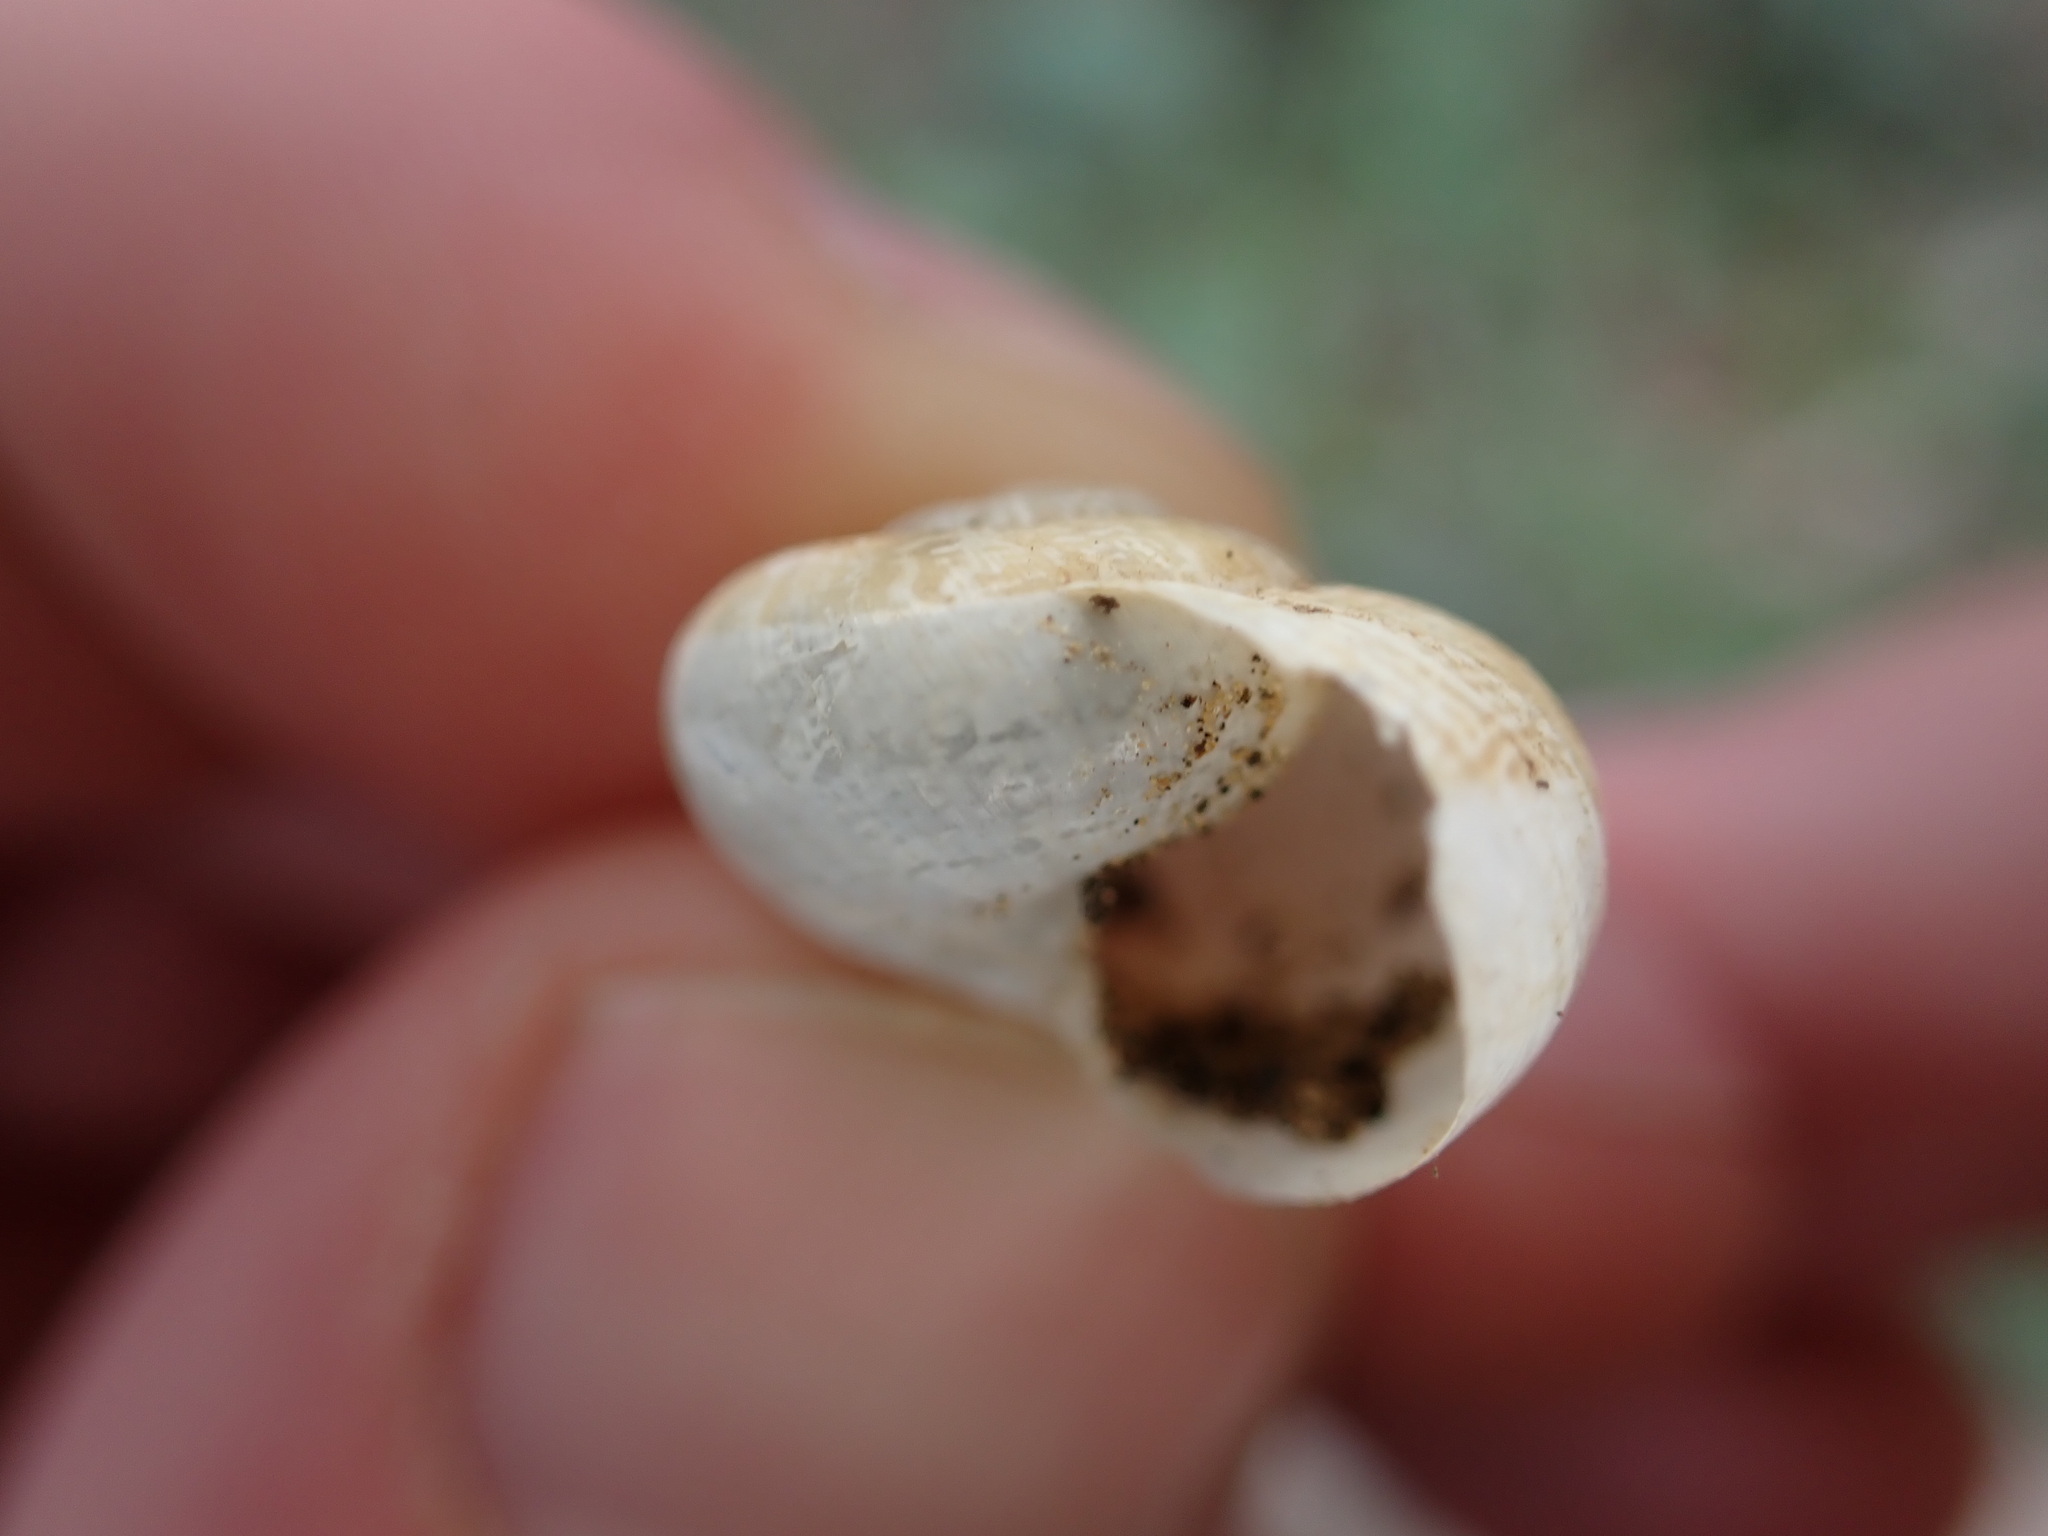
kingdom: Animalia
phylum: Mollusca
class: Gastropoda
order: Stylommatophora
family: Helicidae
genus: Eobania
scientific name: Eobania vermiculata
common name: Chocolateband snail
